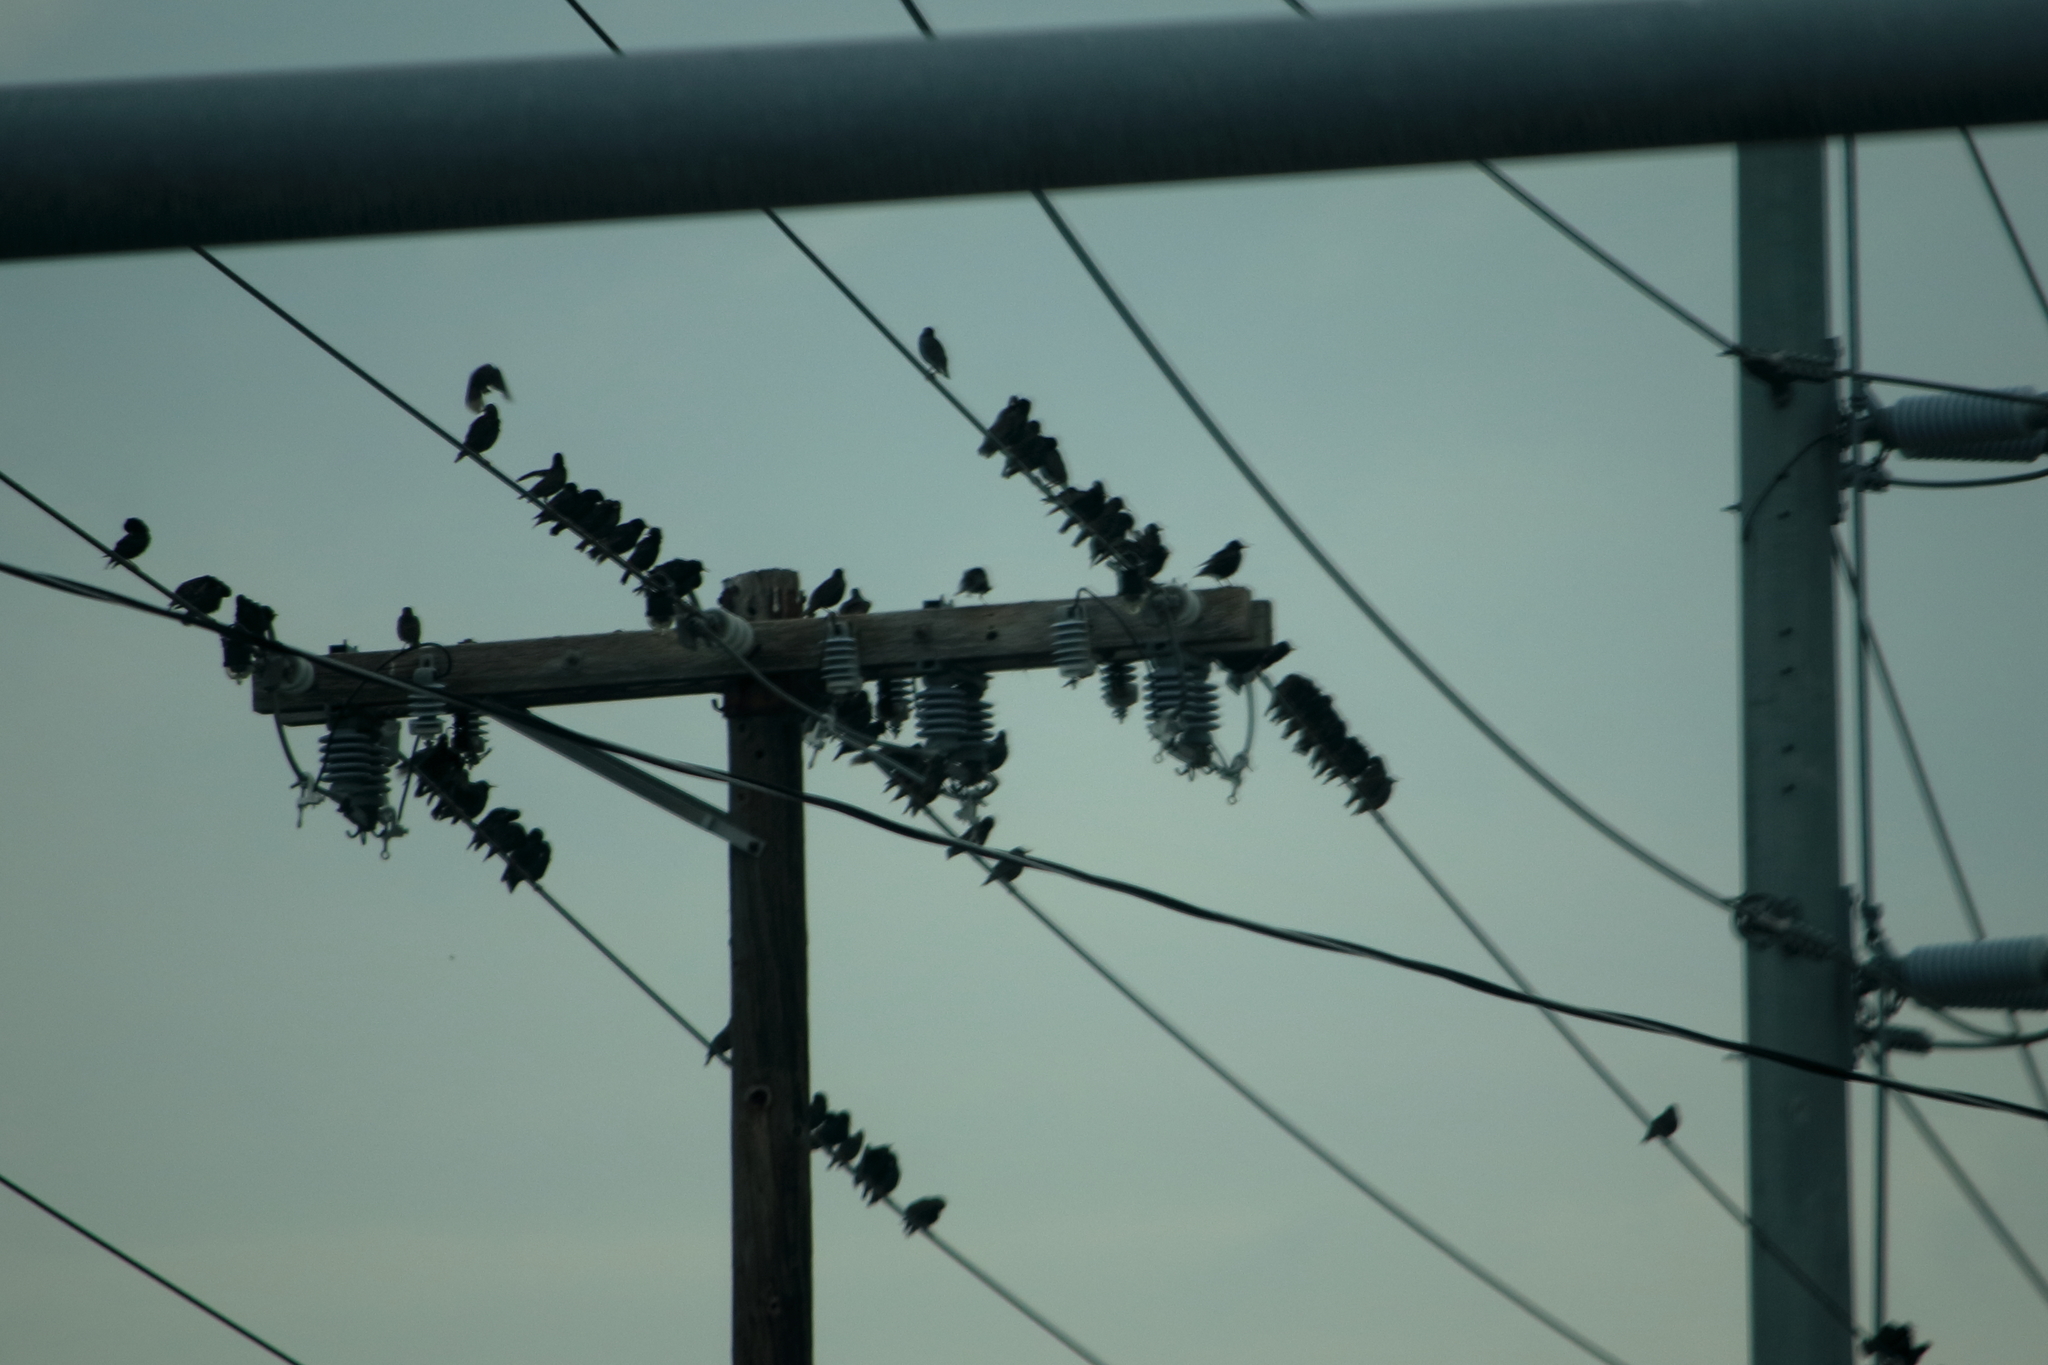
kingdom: Animalia
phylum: Chordata
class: Aves
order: Passeriformes
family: Sturnidae
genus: Sturnus
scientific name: Sturnus vulgaris
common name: Common starling
